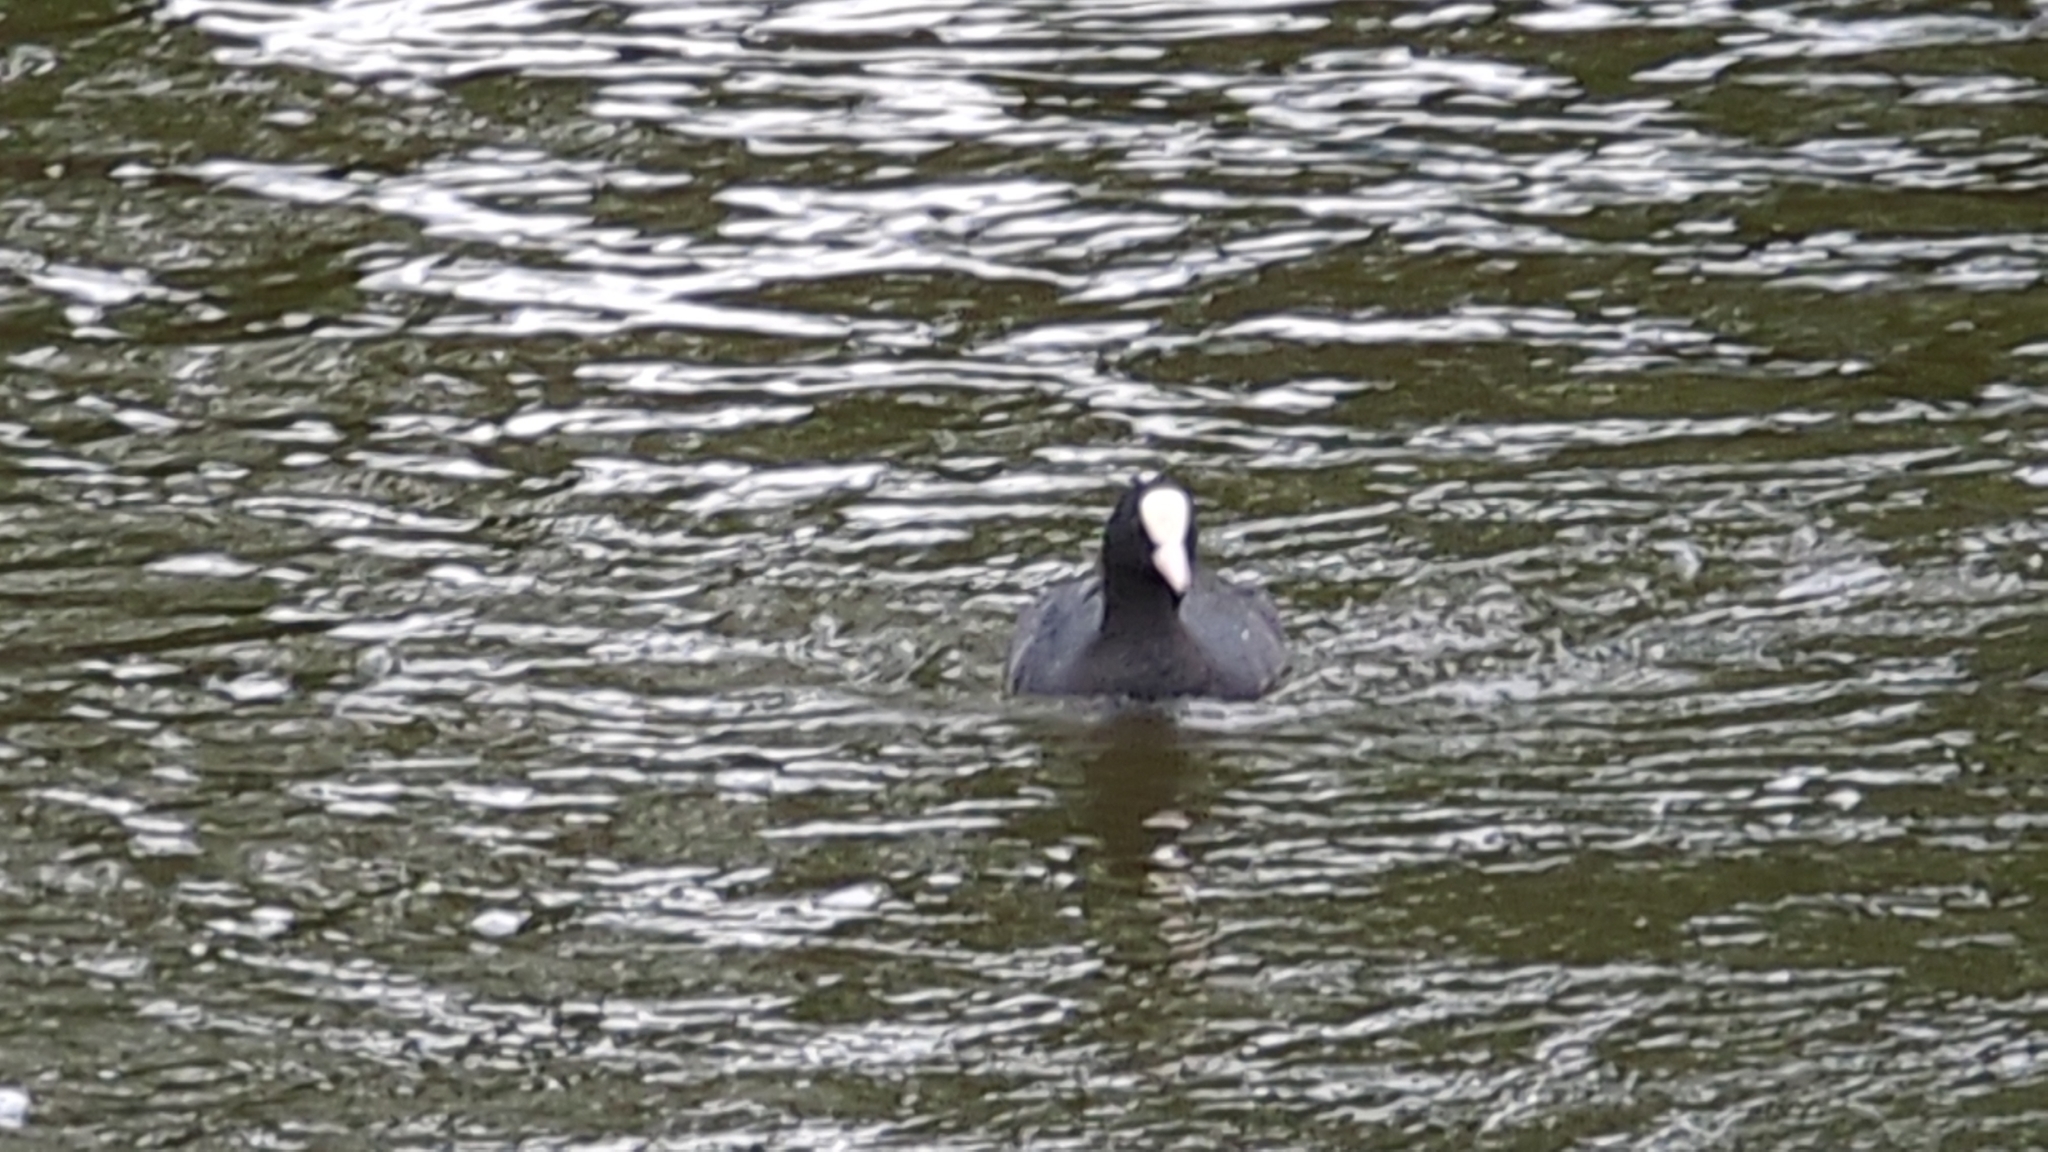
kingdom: Animalia
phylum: Chordata
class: Aves
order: Gruiformes
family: Rallidae
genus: Fulica
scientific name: Fulica atra
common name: Eurasian coot
